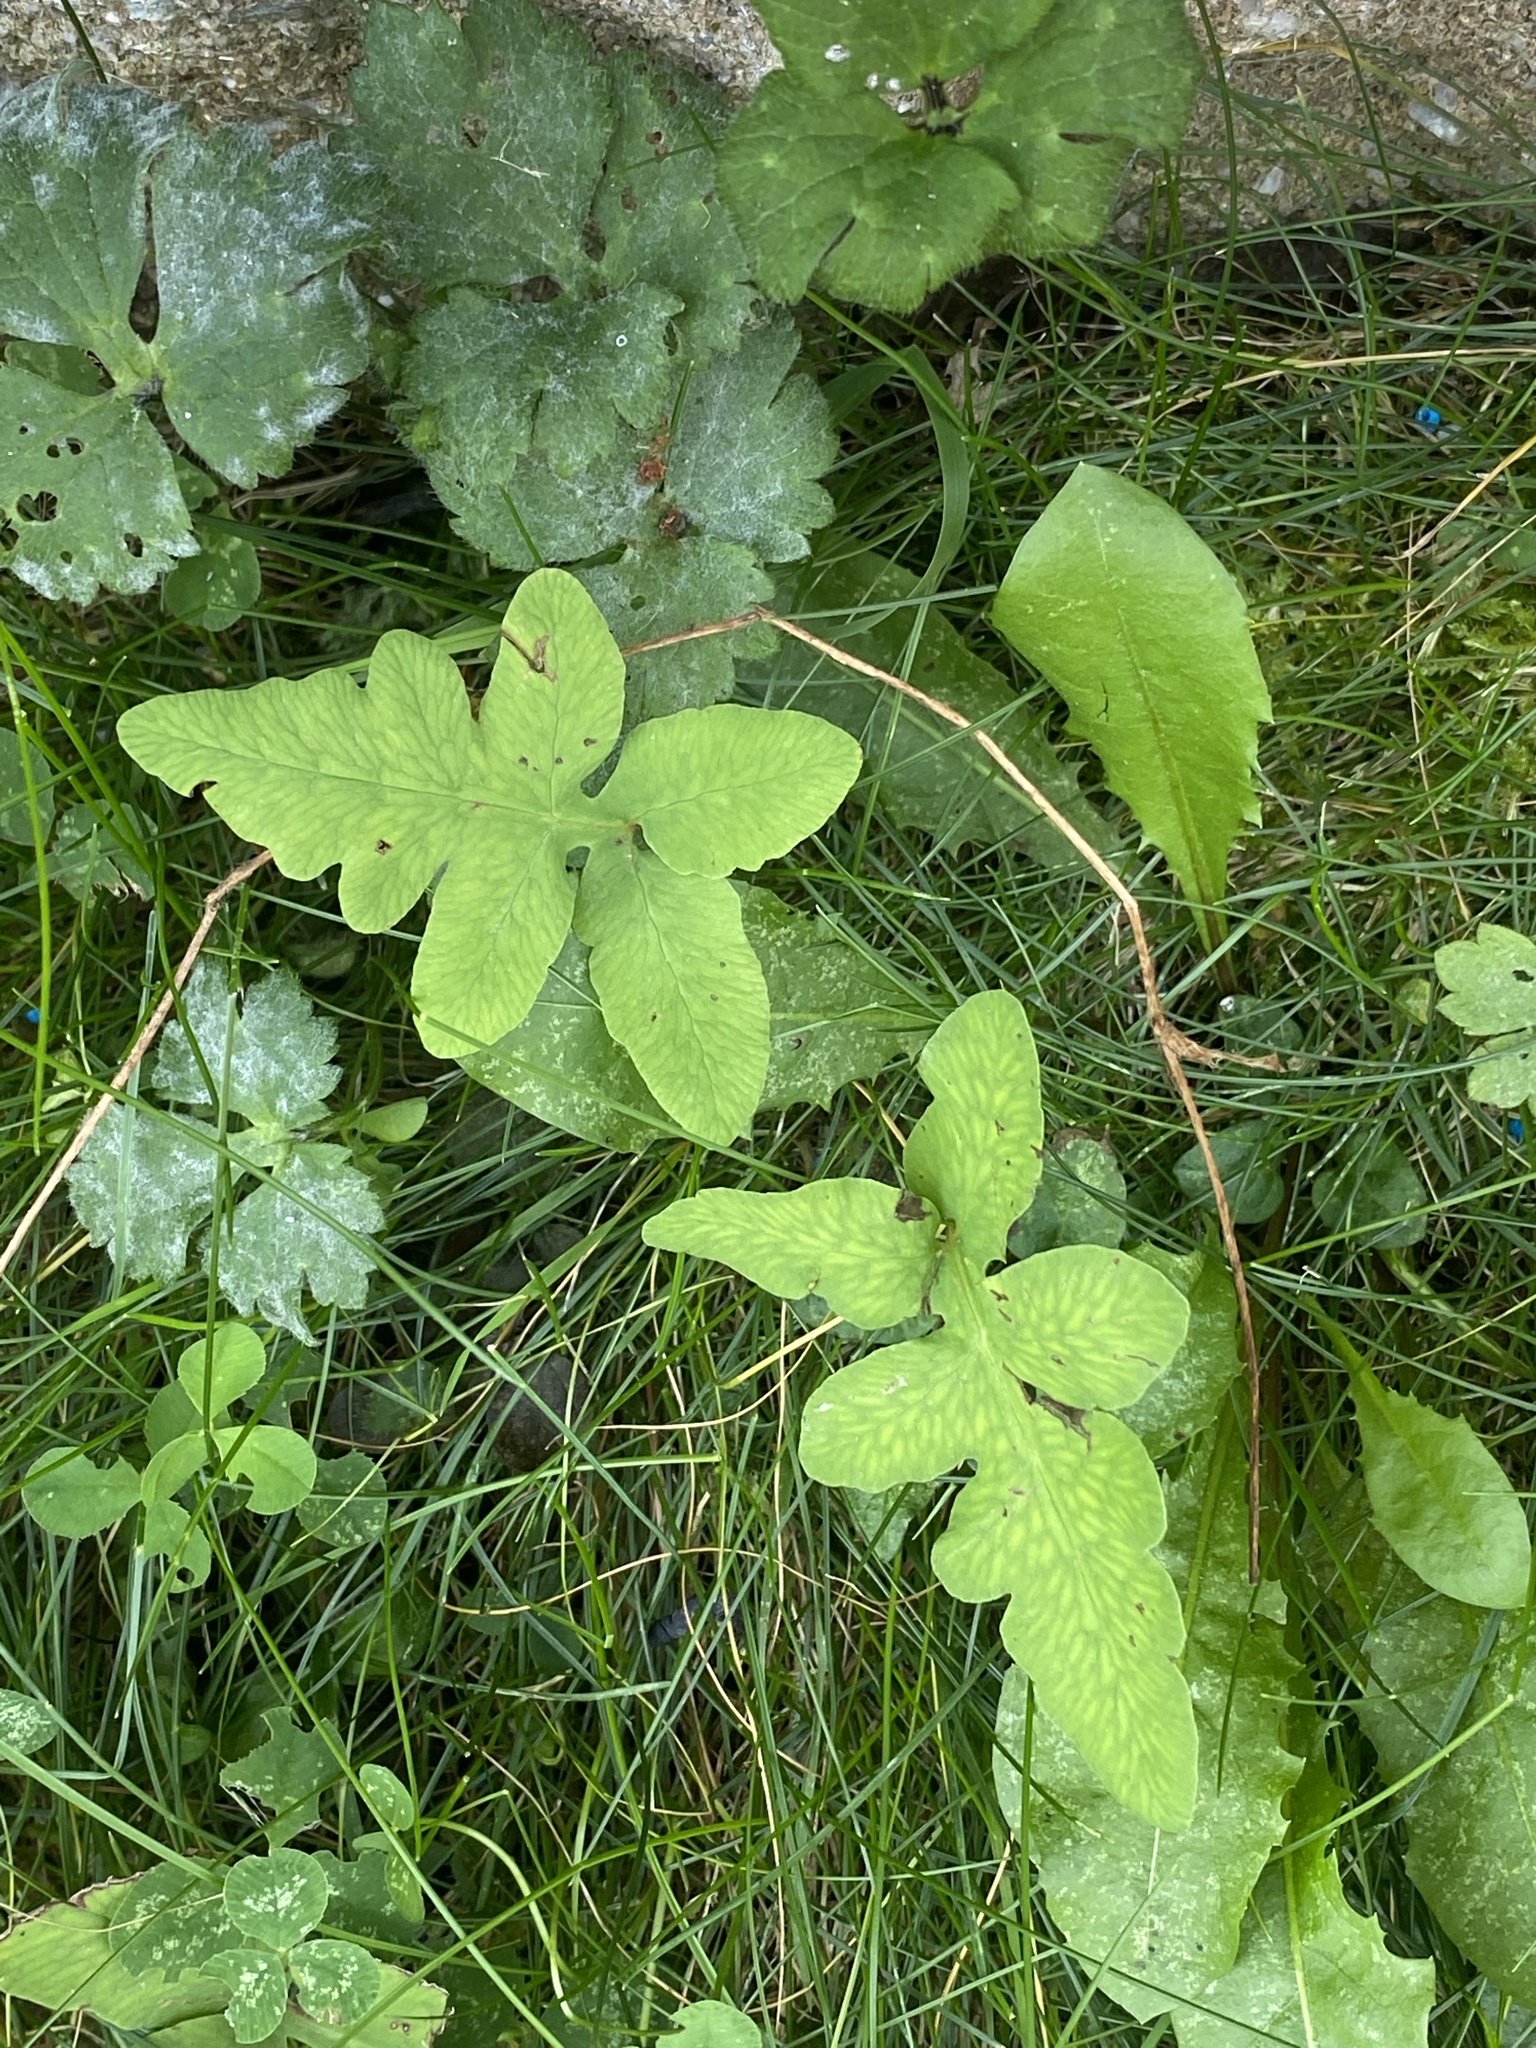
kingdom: Plantae
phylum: Tracheophyta
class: Polypodiopsida
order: Polypodiales
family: Onocleaceae
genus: Onoclea
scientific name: Onoclea sensibilis
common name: Sensitive fern
